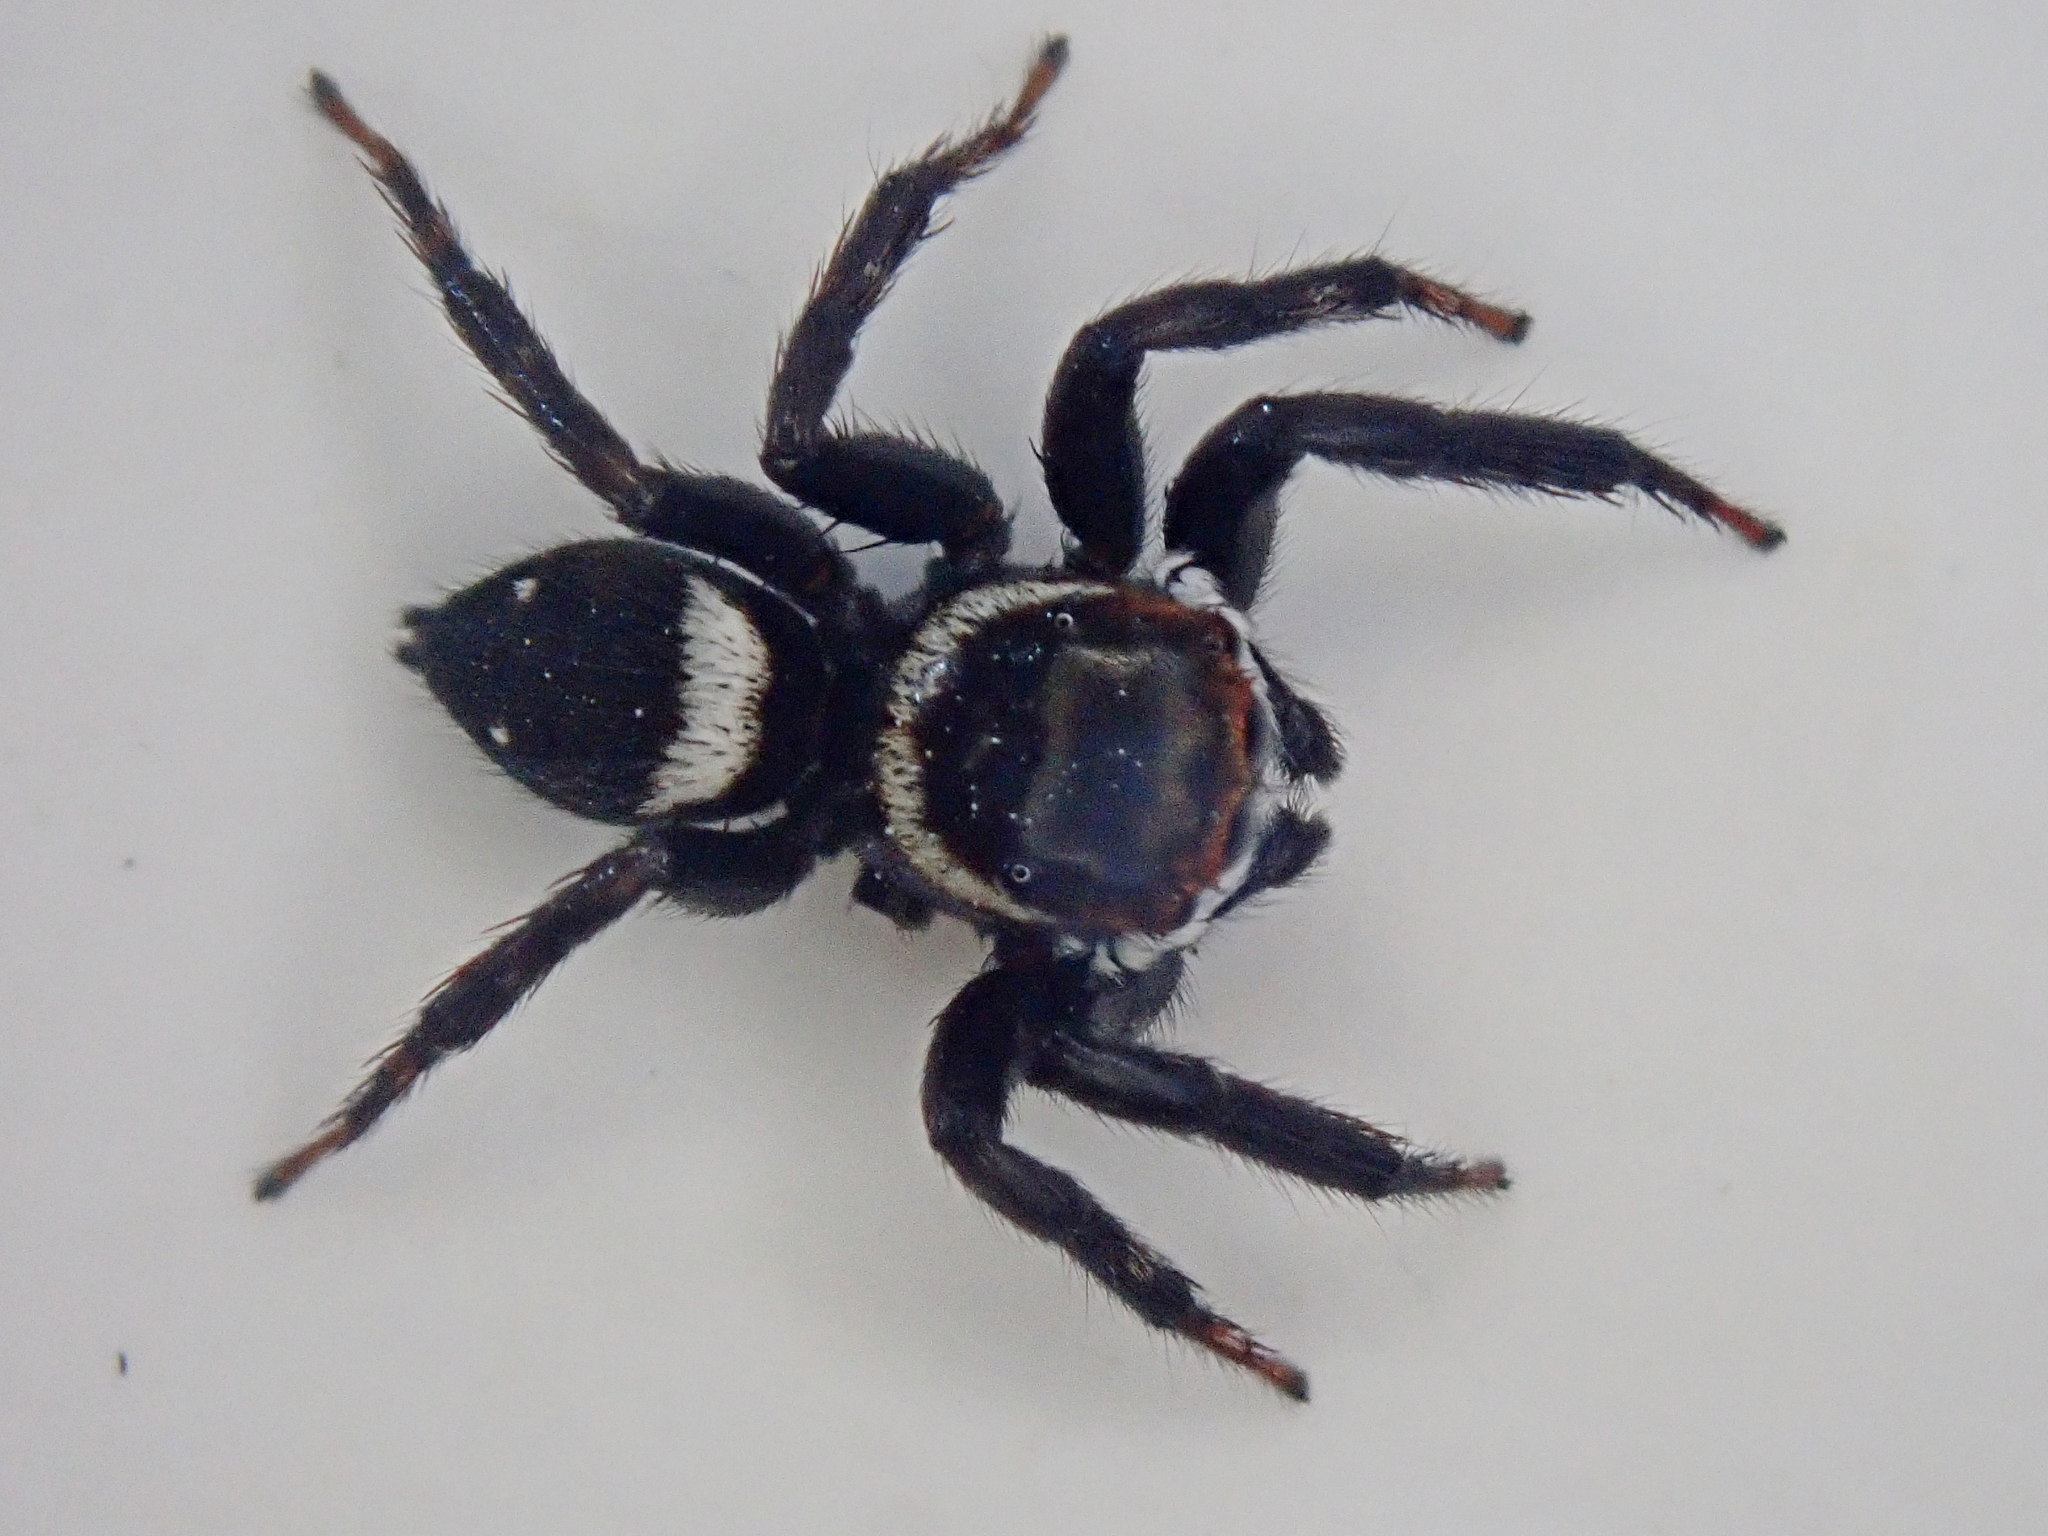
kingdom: Animalia
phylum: Arthropoda
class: Arachnida
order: Araneae
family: Salticidae
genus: Hasarius
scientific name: Hasarius adansoni
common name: Jumping spider
